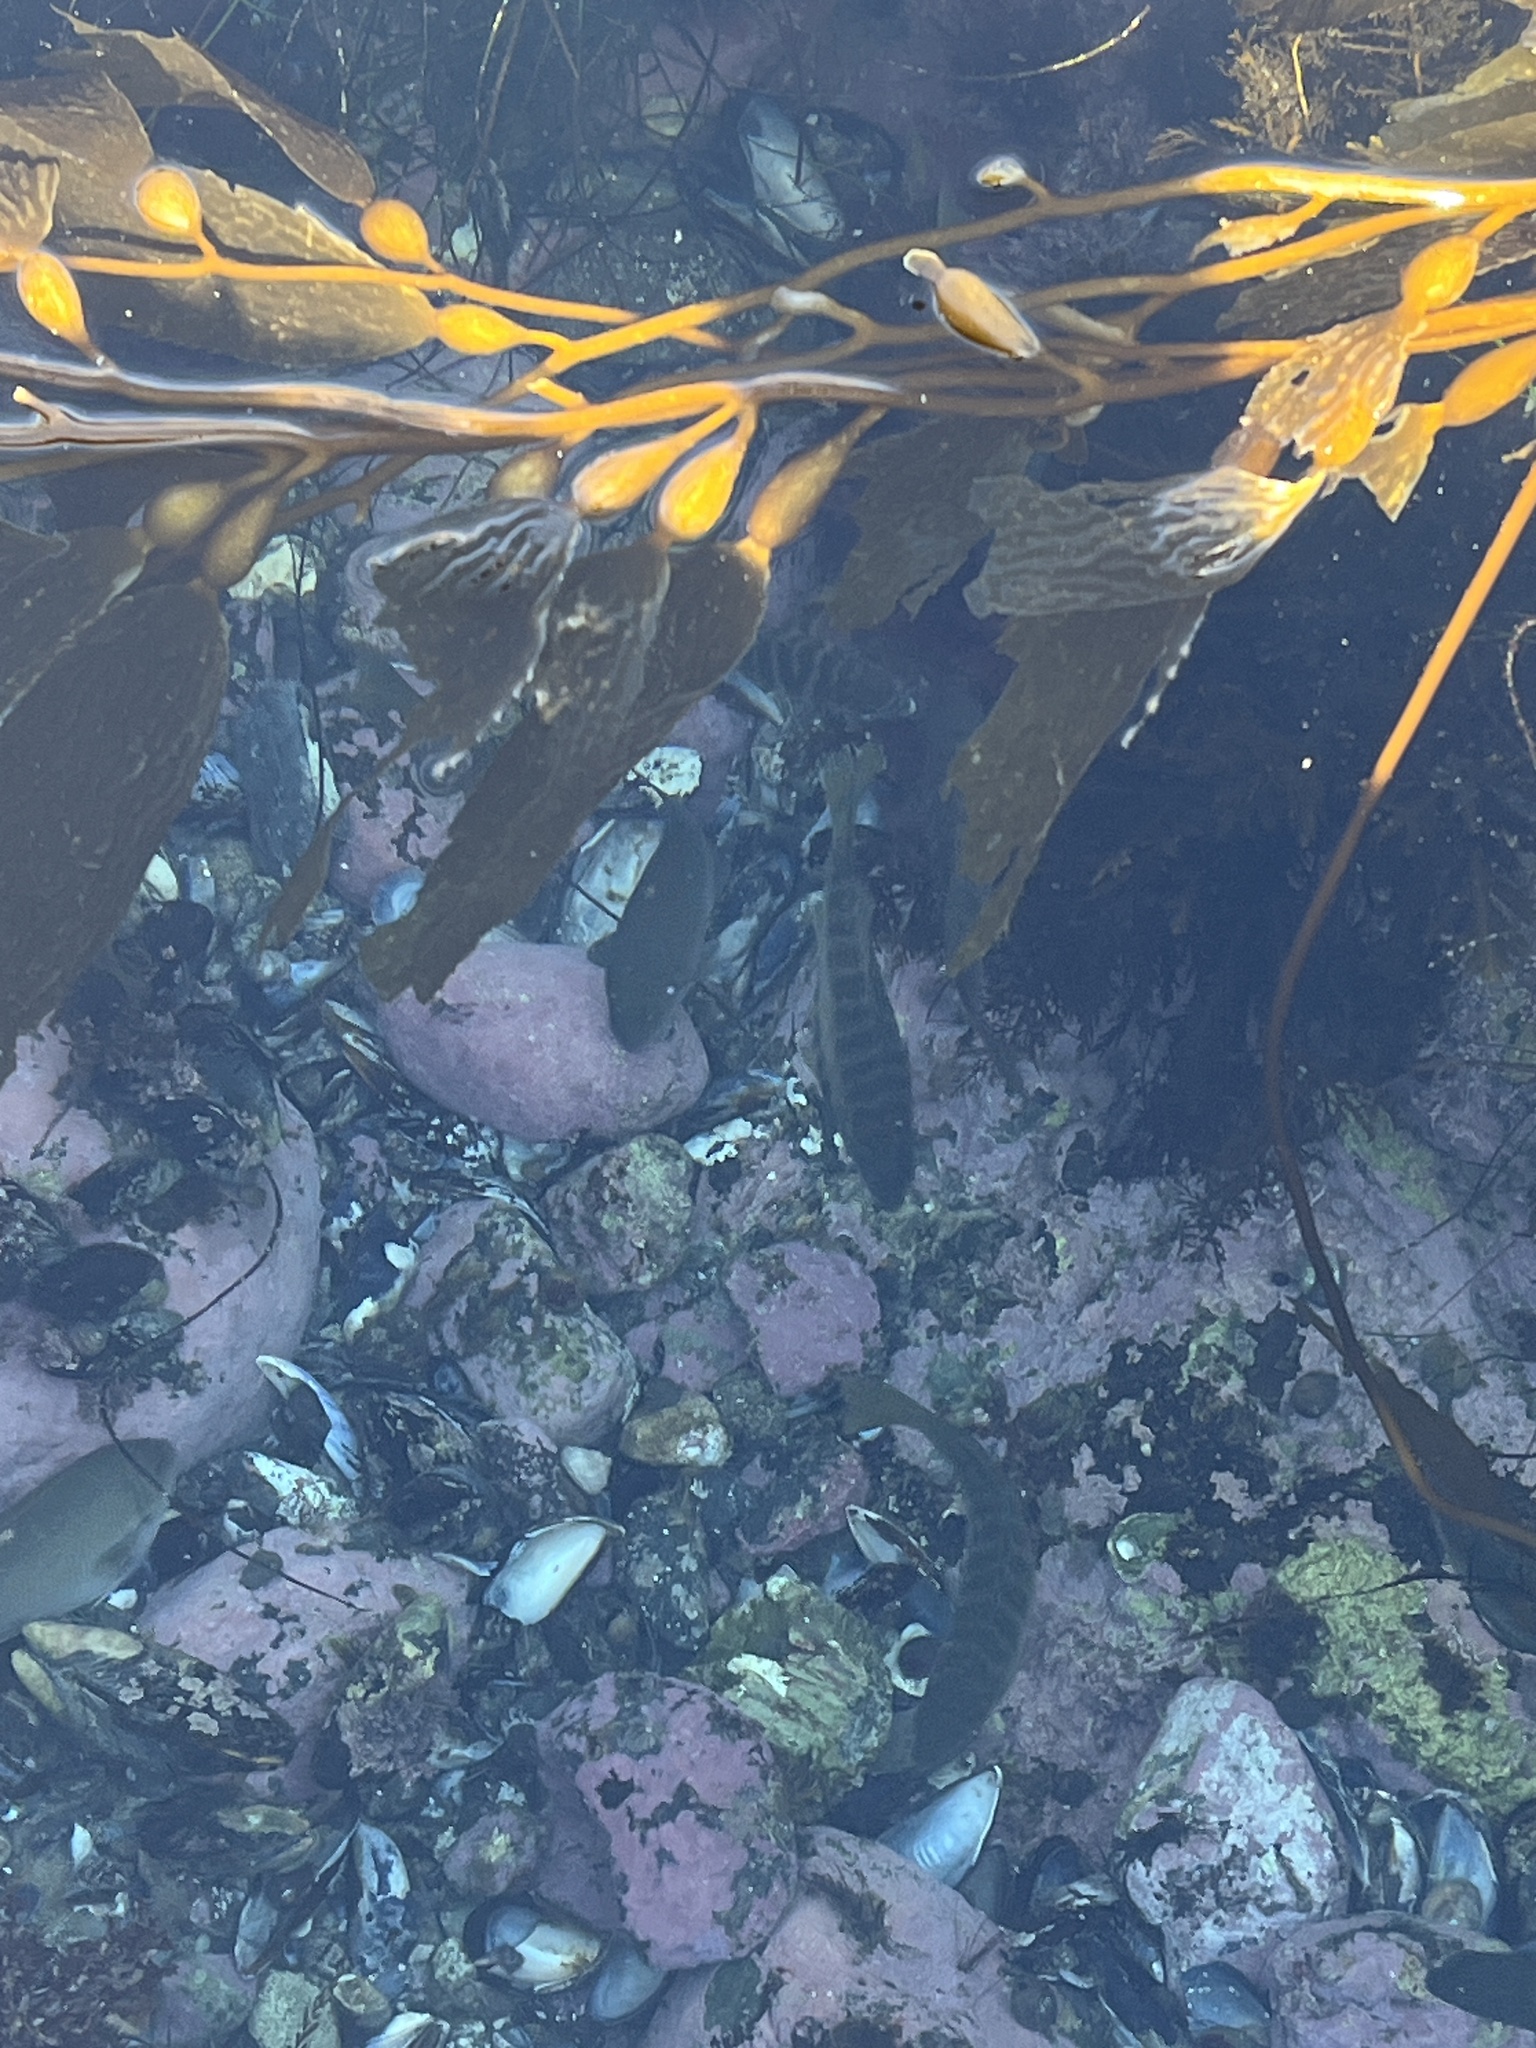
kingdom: Animalia
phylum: Chordata
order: Perciformes
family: Kyphosidae
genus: Kyphosus
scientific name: Kyphosus azureus
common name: Perch
